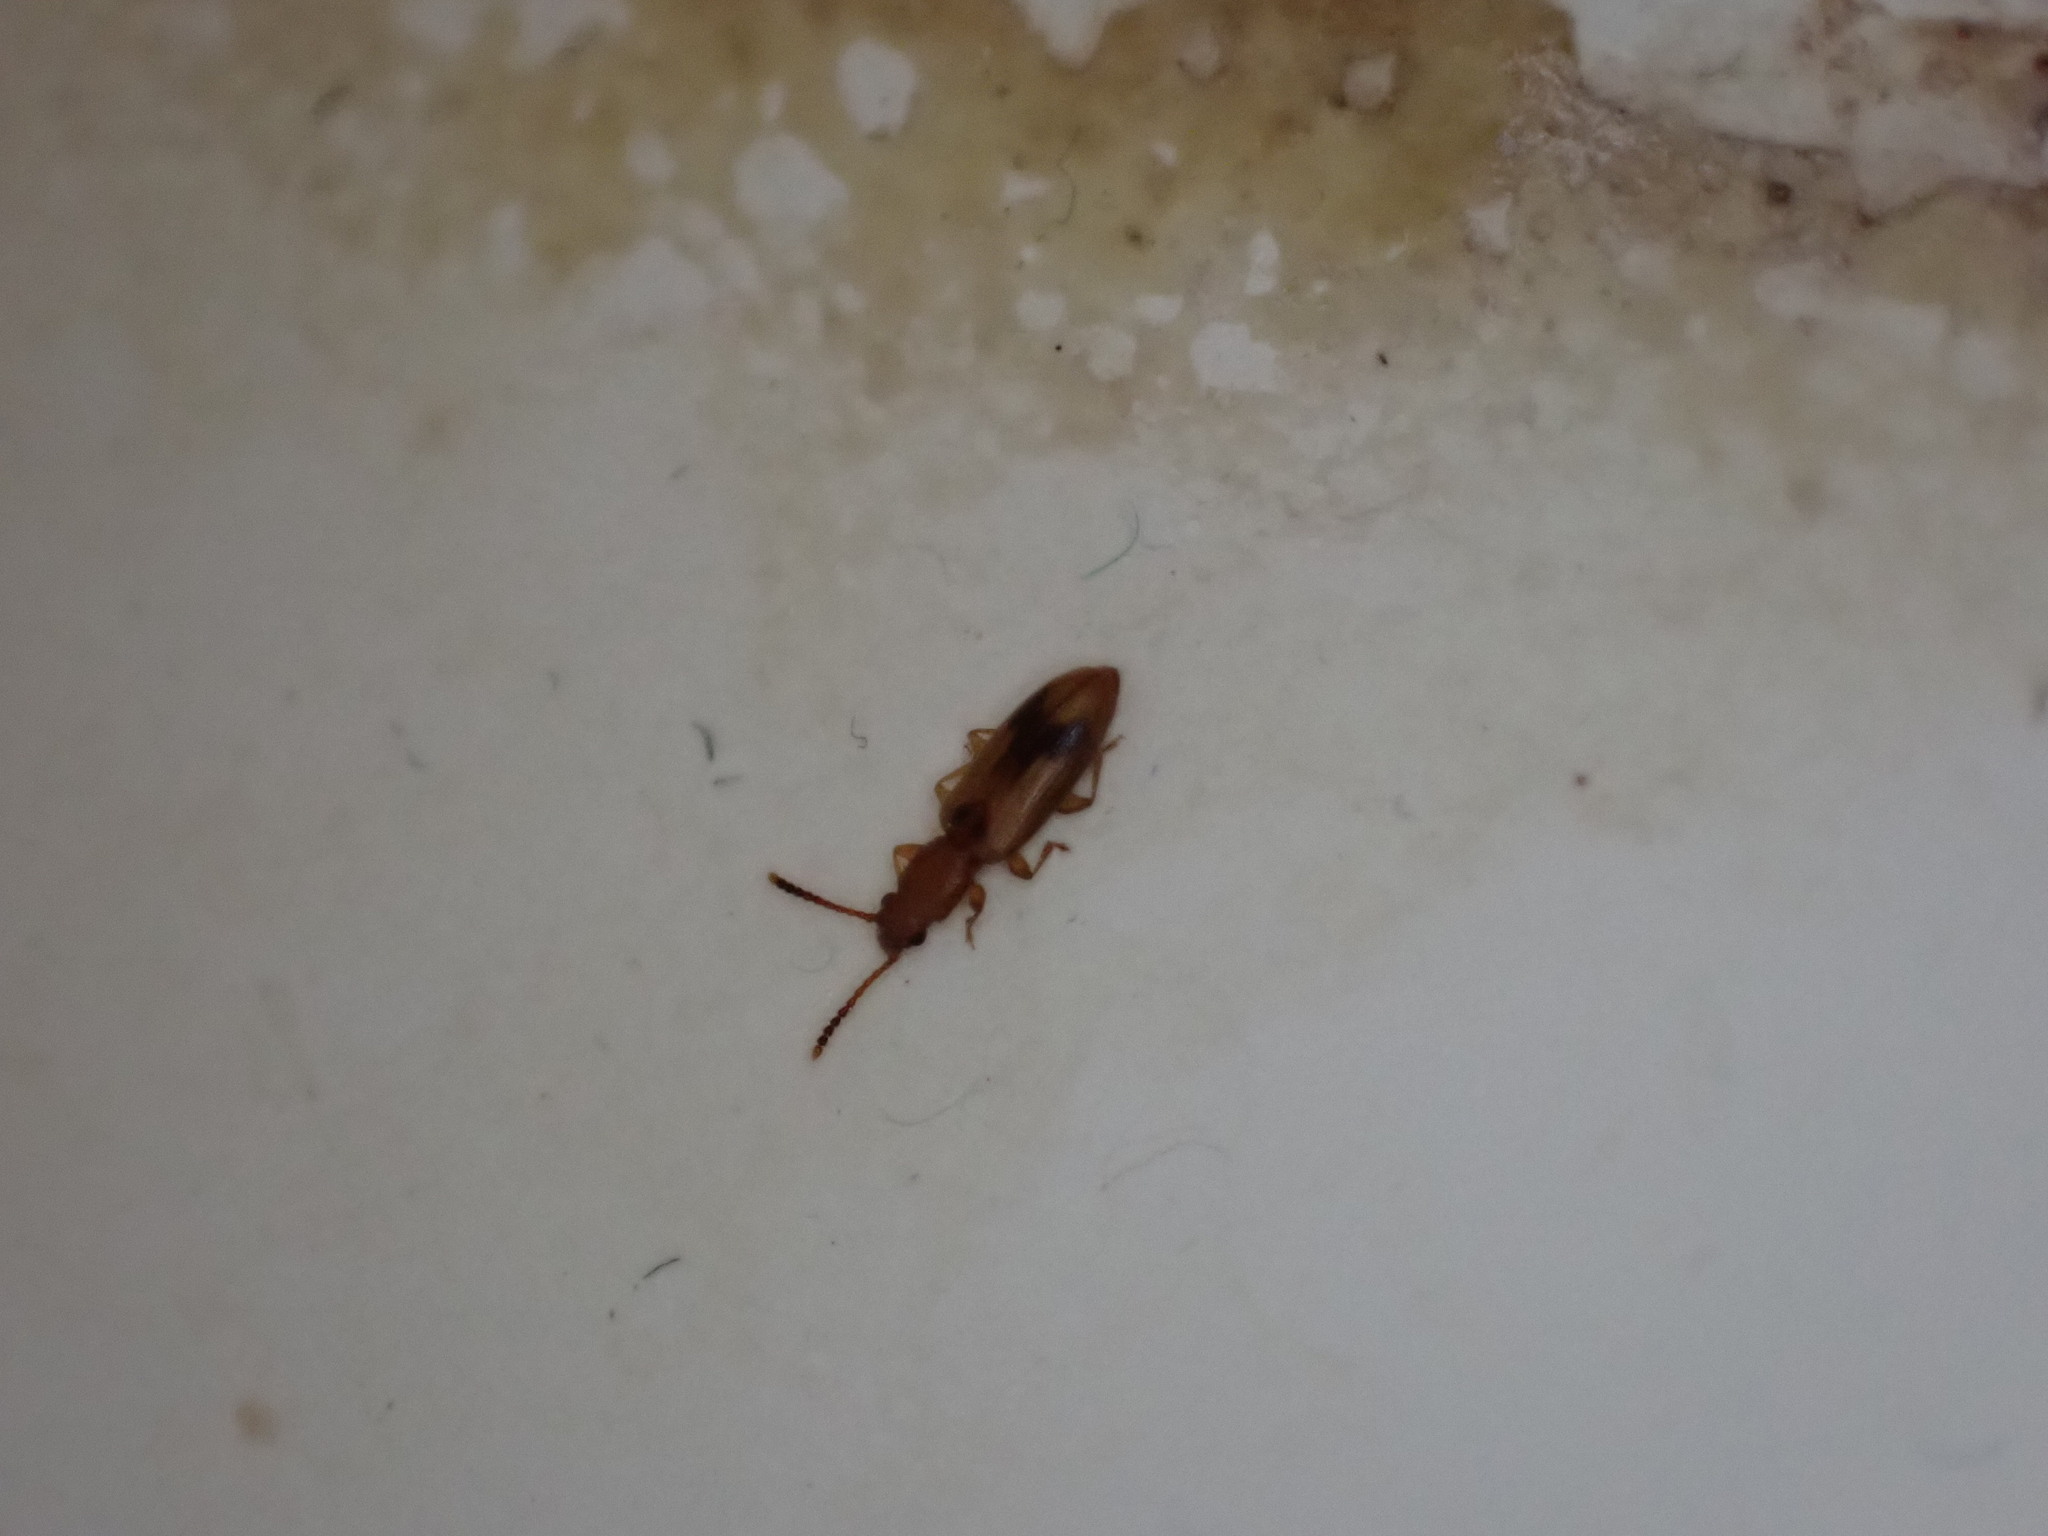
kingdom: Animalia
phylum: Arthropoda
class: Insecta
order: Coleoptera
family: Silvanidae
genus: Cryptamorpha
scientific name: Cryptamorpha desjardinsi
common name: Cryptamorpha
